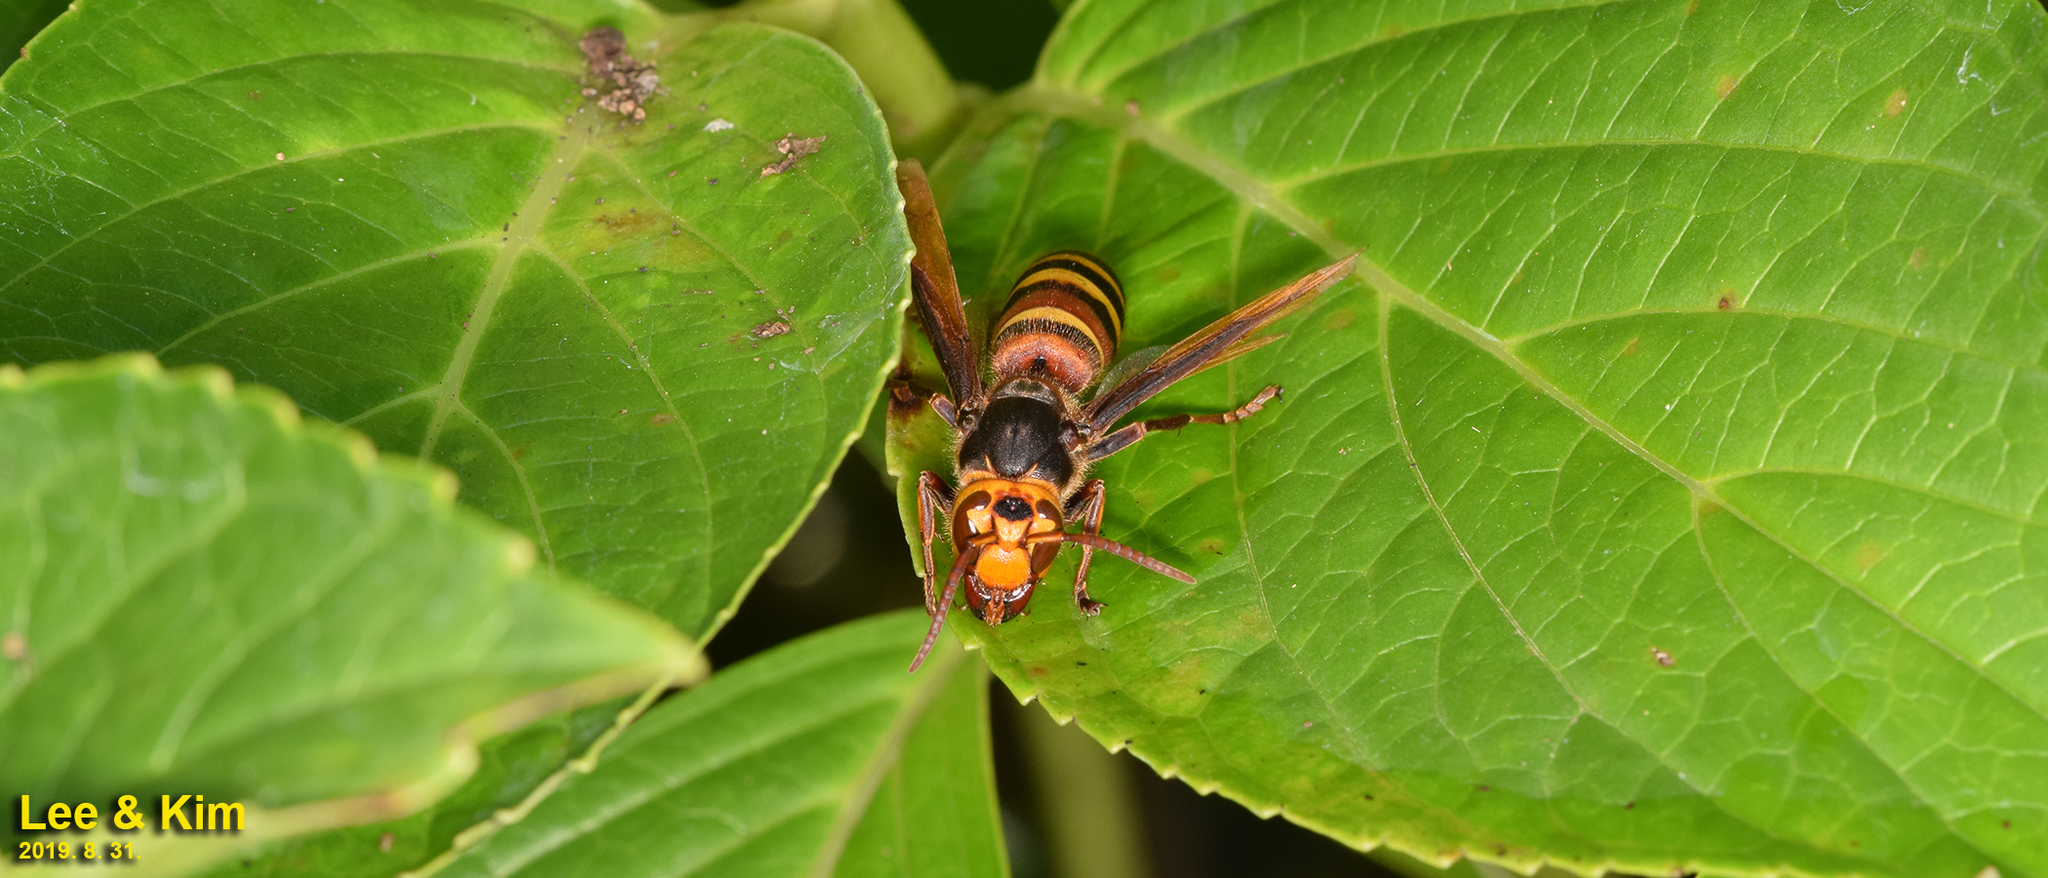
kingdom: Animalia
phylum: Arthropoda
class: Insecta
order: Hymenoptera
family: Vespidae
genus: Vespa
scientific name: Vespa ducalis
